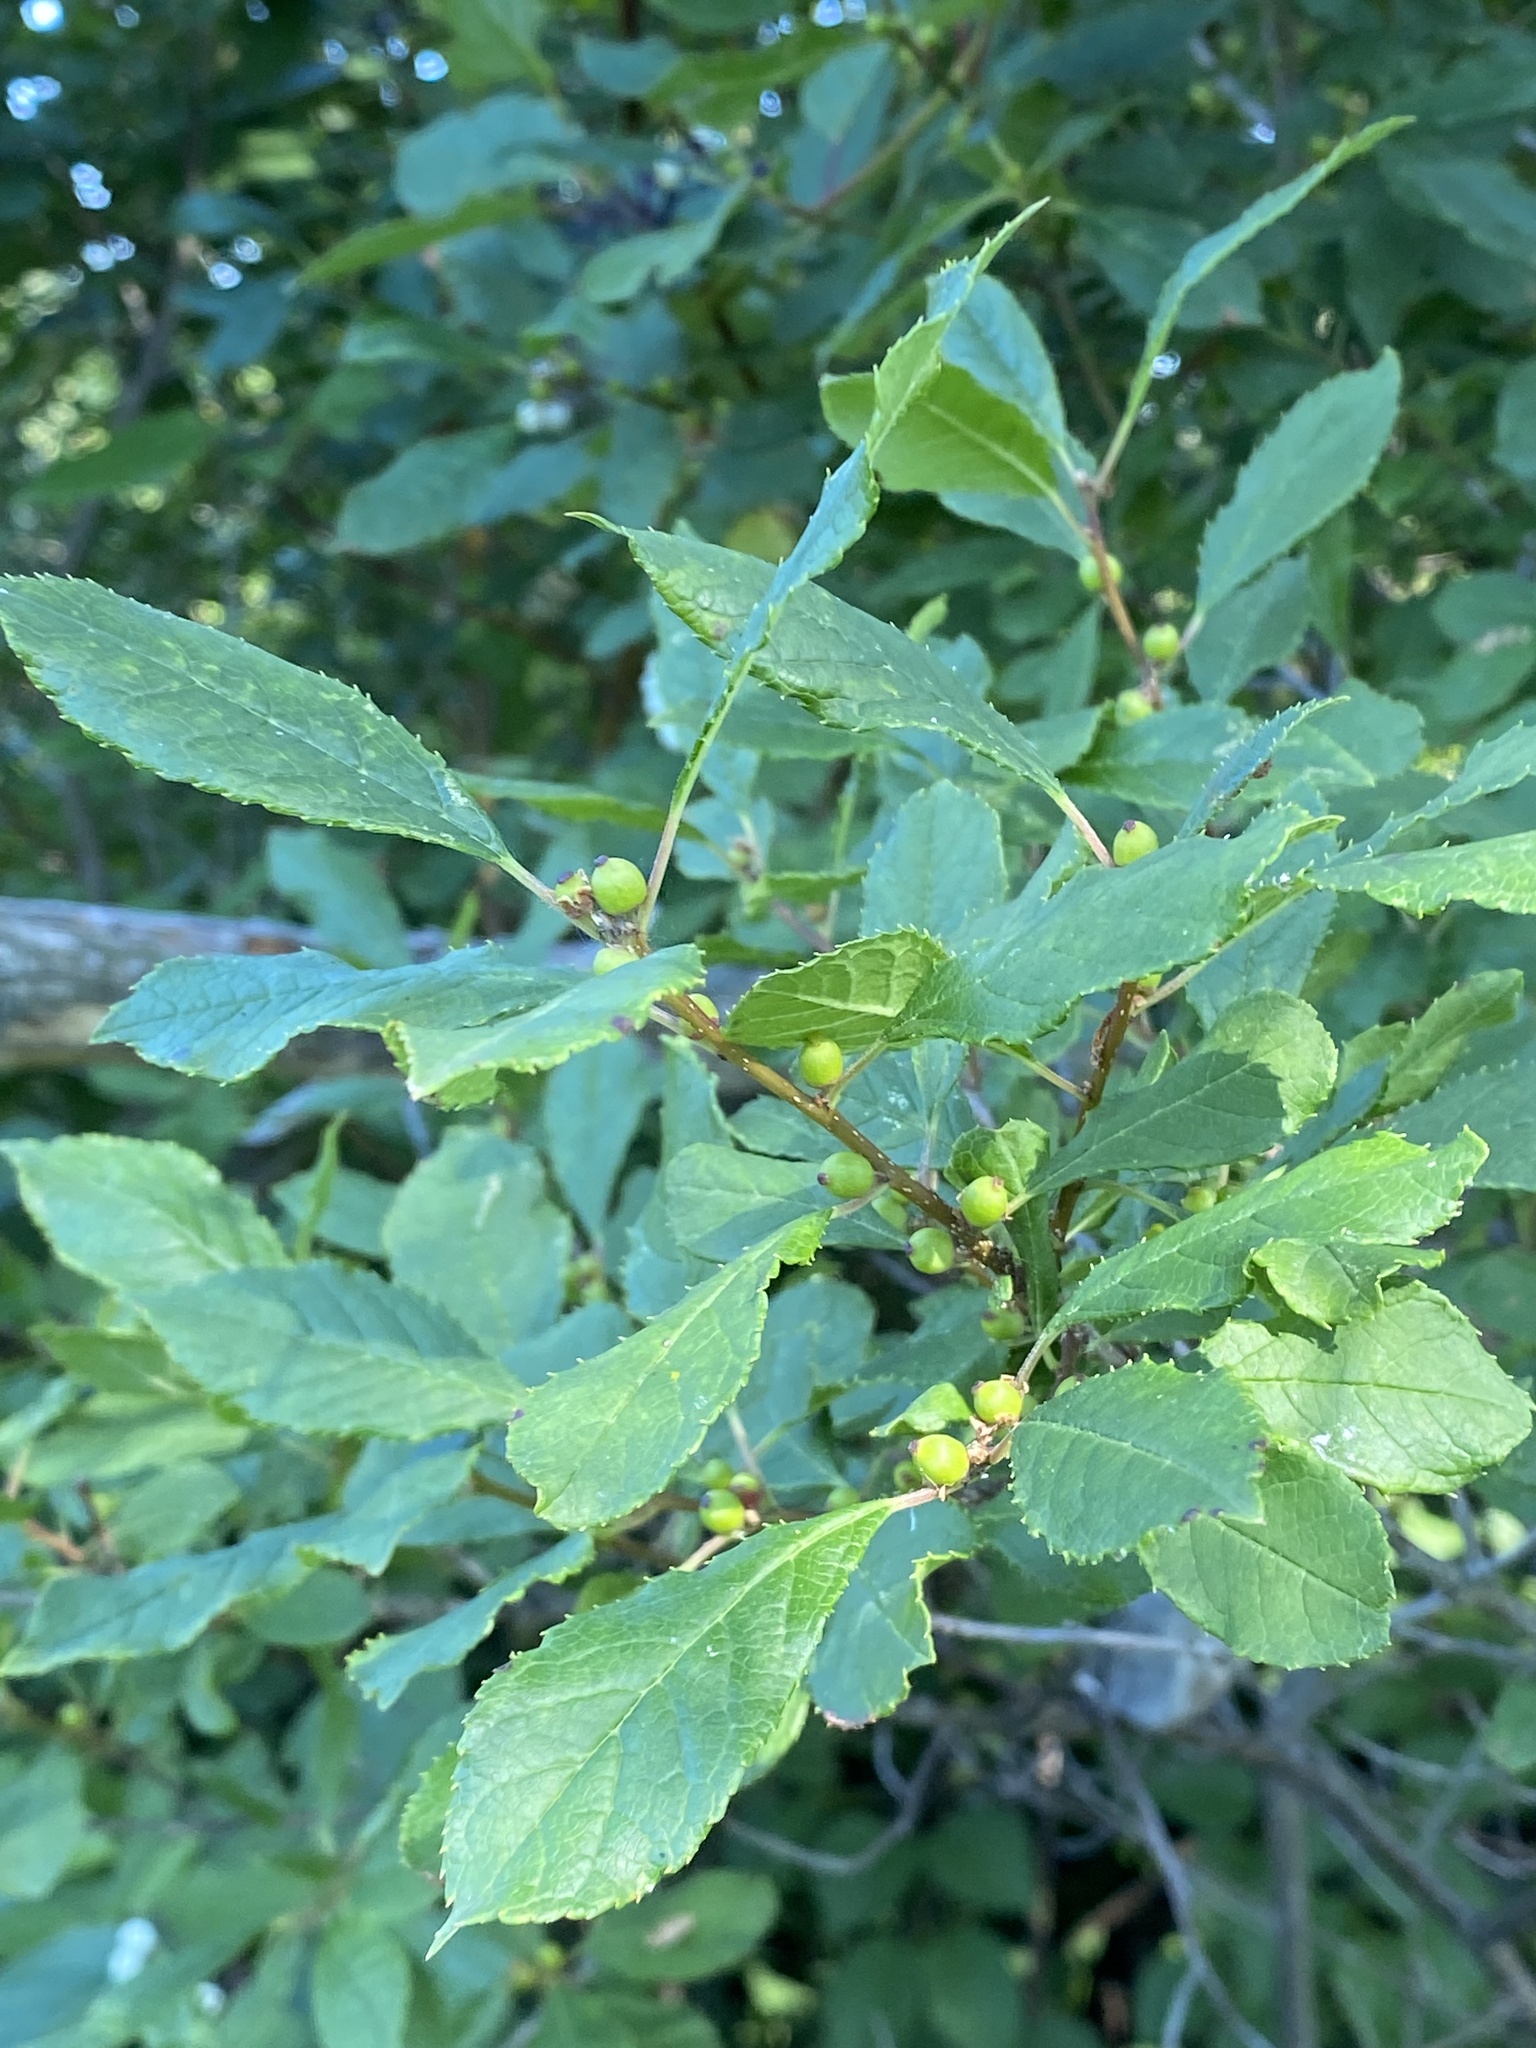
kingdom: Plantae
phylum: Tracheophyta
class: Magnoliopsida
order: Aquifoliales
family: Aquifoliaceae
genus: Ilex
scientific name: Ilex verticillata
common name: Virginia winterberry
